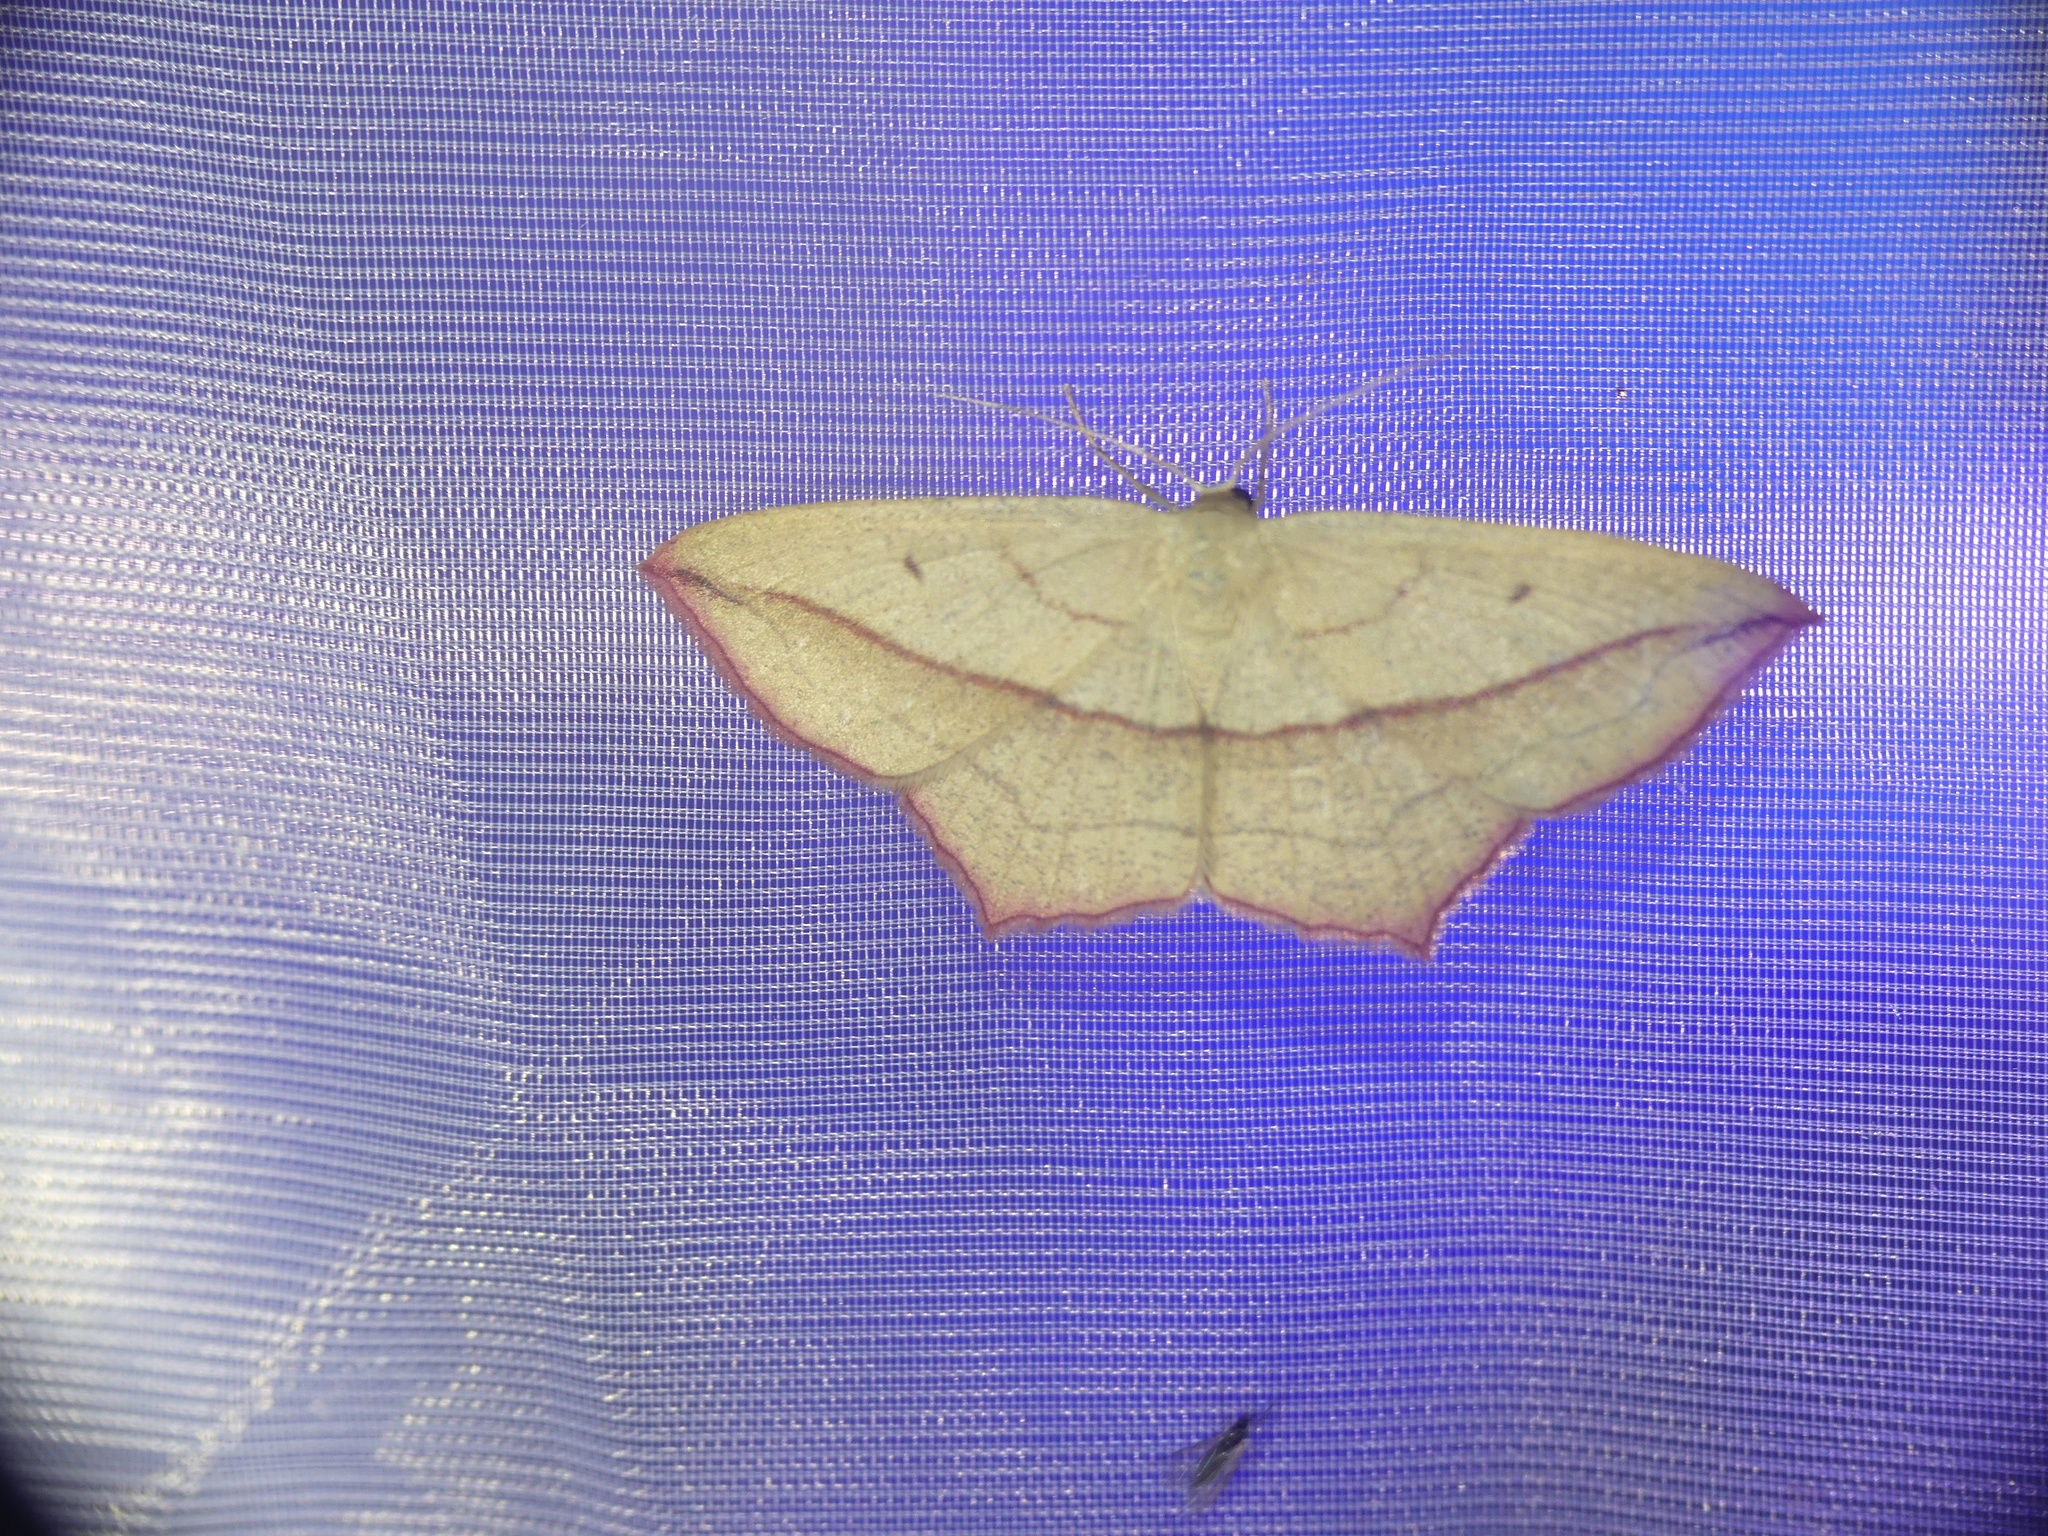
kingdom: Animalia
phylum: Arthropoda
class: Insecta
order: Lepidoptera
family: Geometridae
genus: Timandra
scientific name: Timandra comae
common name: Blood-vein
